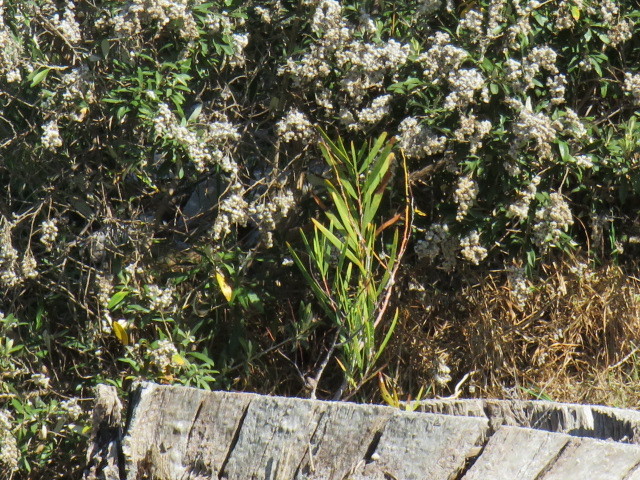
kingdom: Plantae
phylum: Tracheophyta
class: Magnoliopsida
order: Fabales
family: Fabaceae
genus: Acacia
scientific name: Acacia longifolia
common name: Sydney golden wattle
